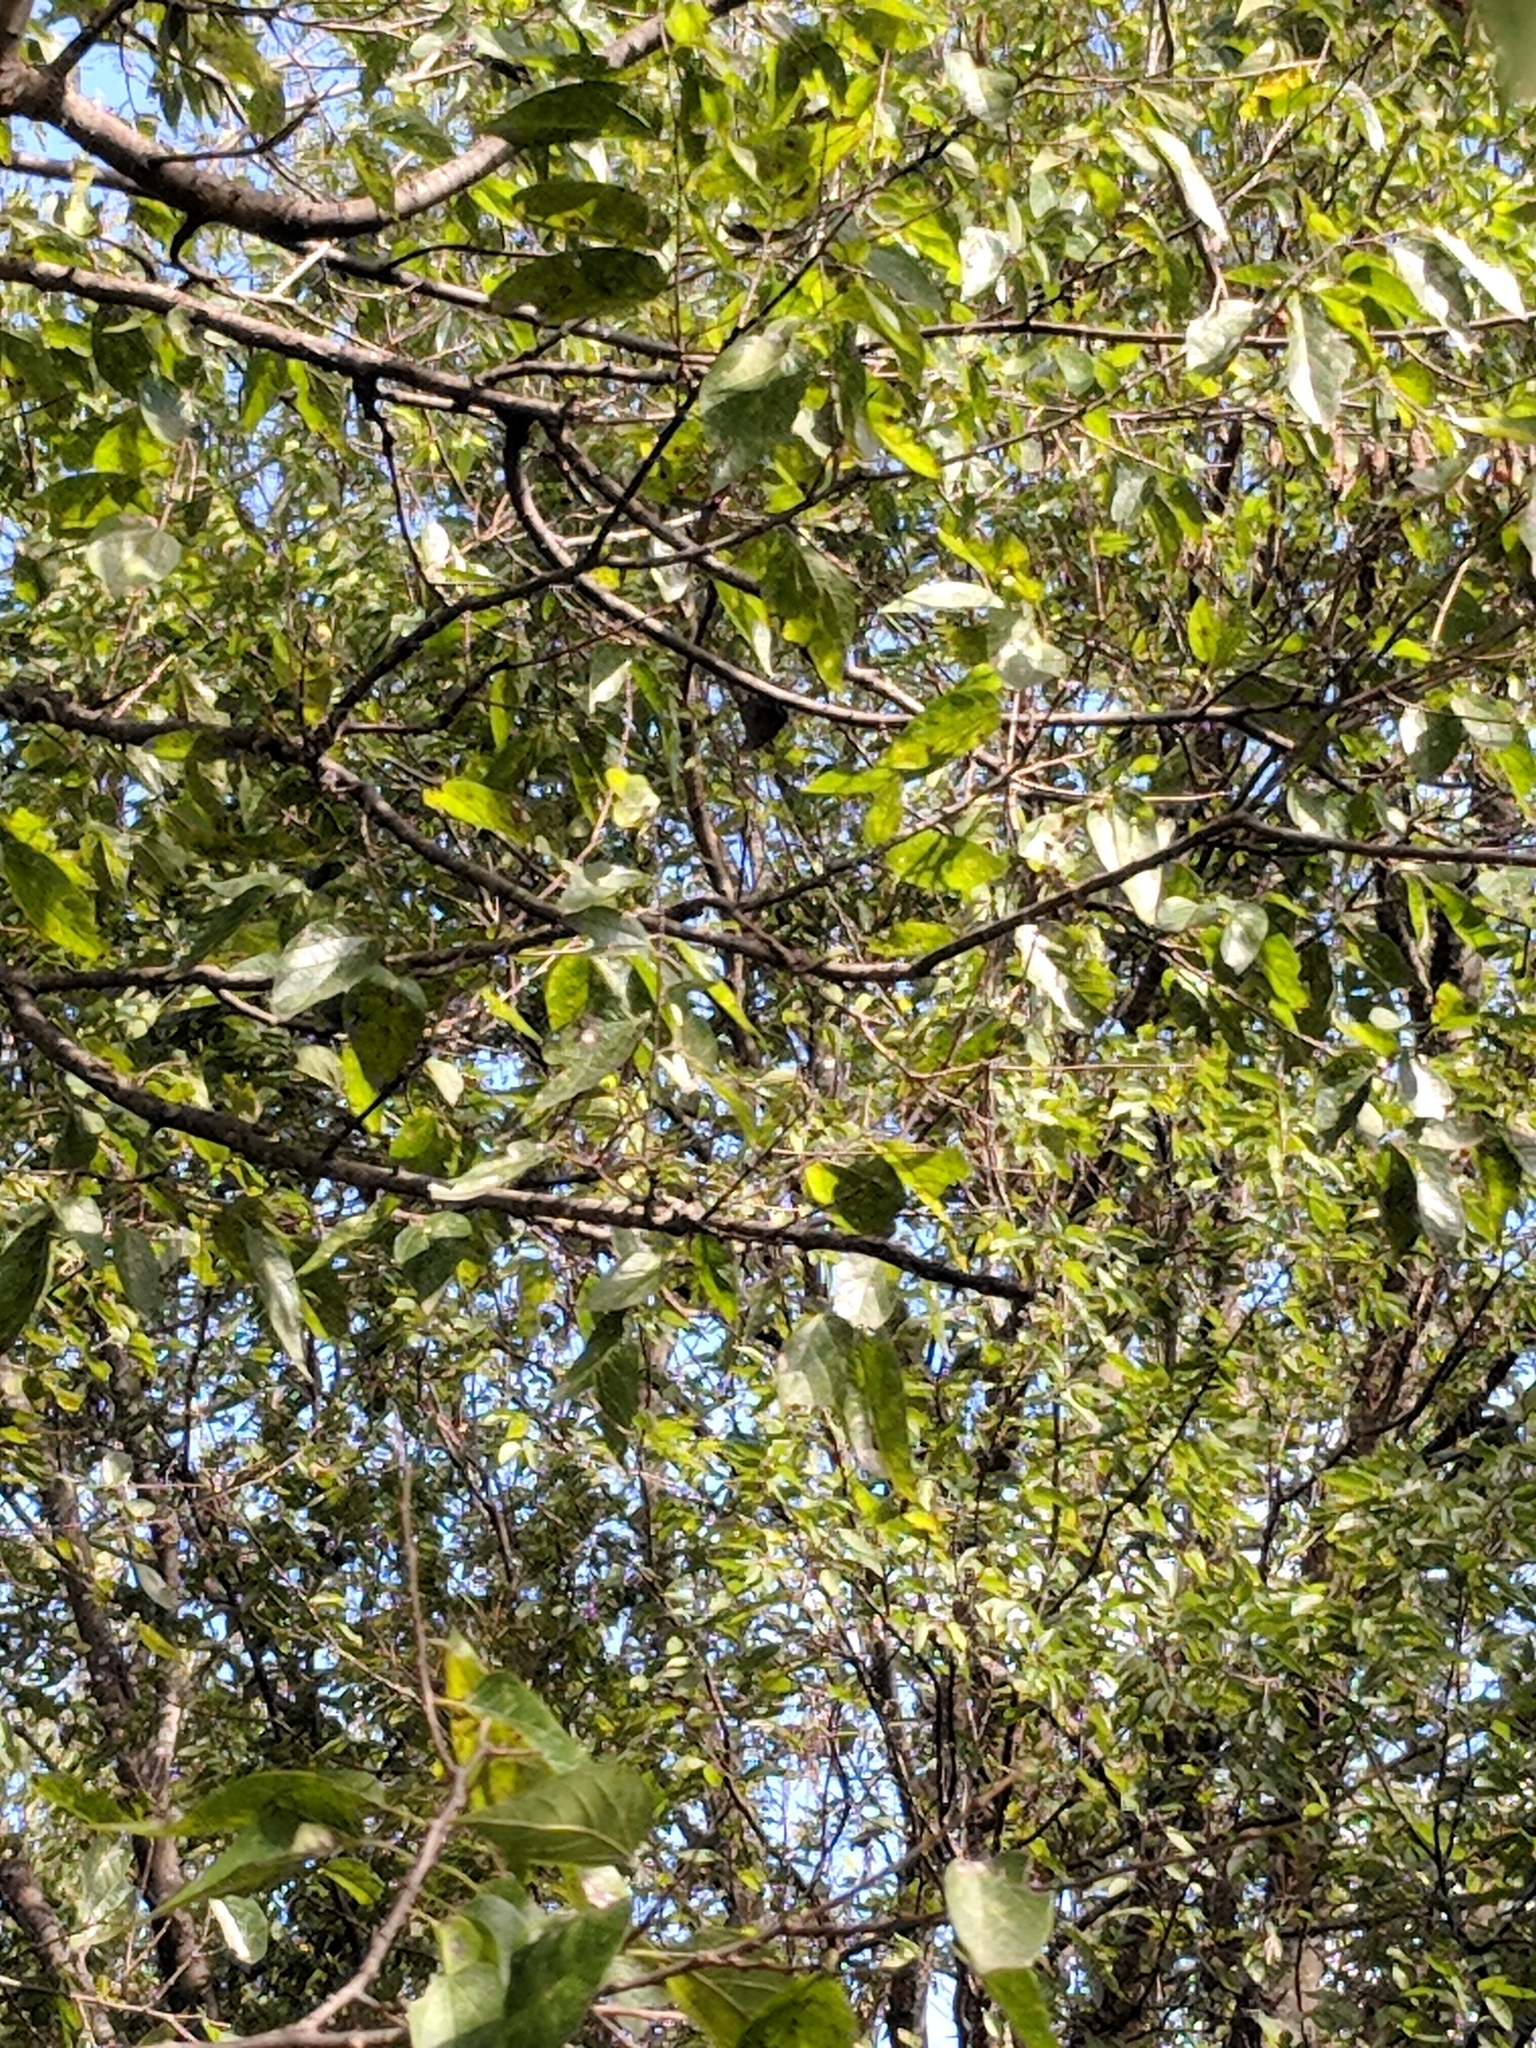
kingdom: Animalia
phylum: Arthropoda
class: Insecta
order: Lepidoptera
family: Nymphalidae
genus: Anaea
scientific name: Anaea aidea
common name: Tropical leafwing
